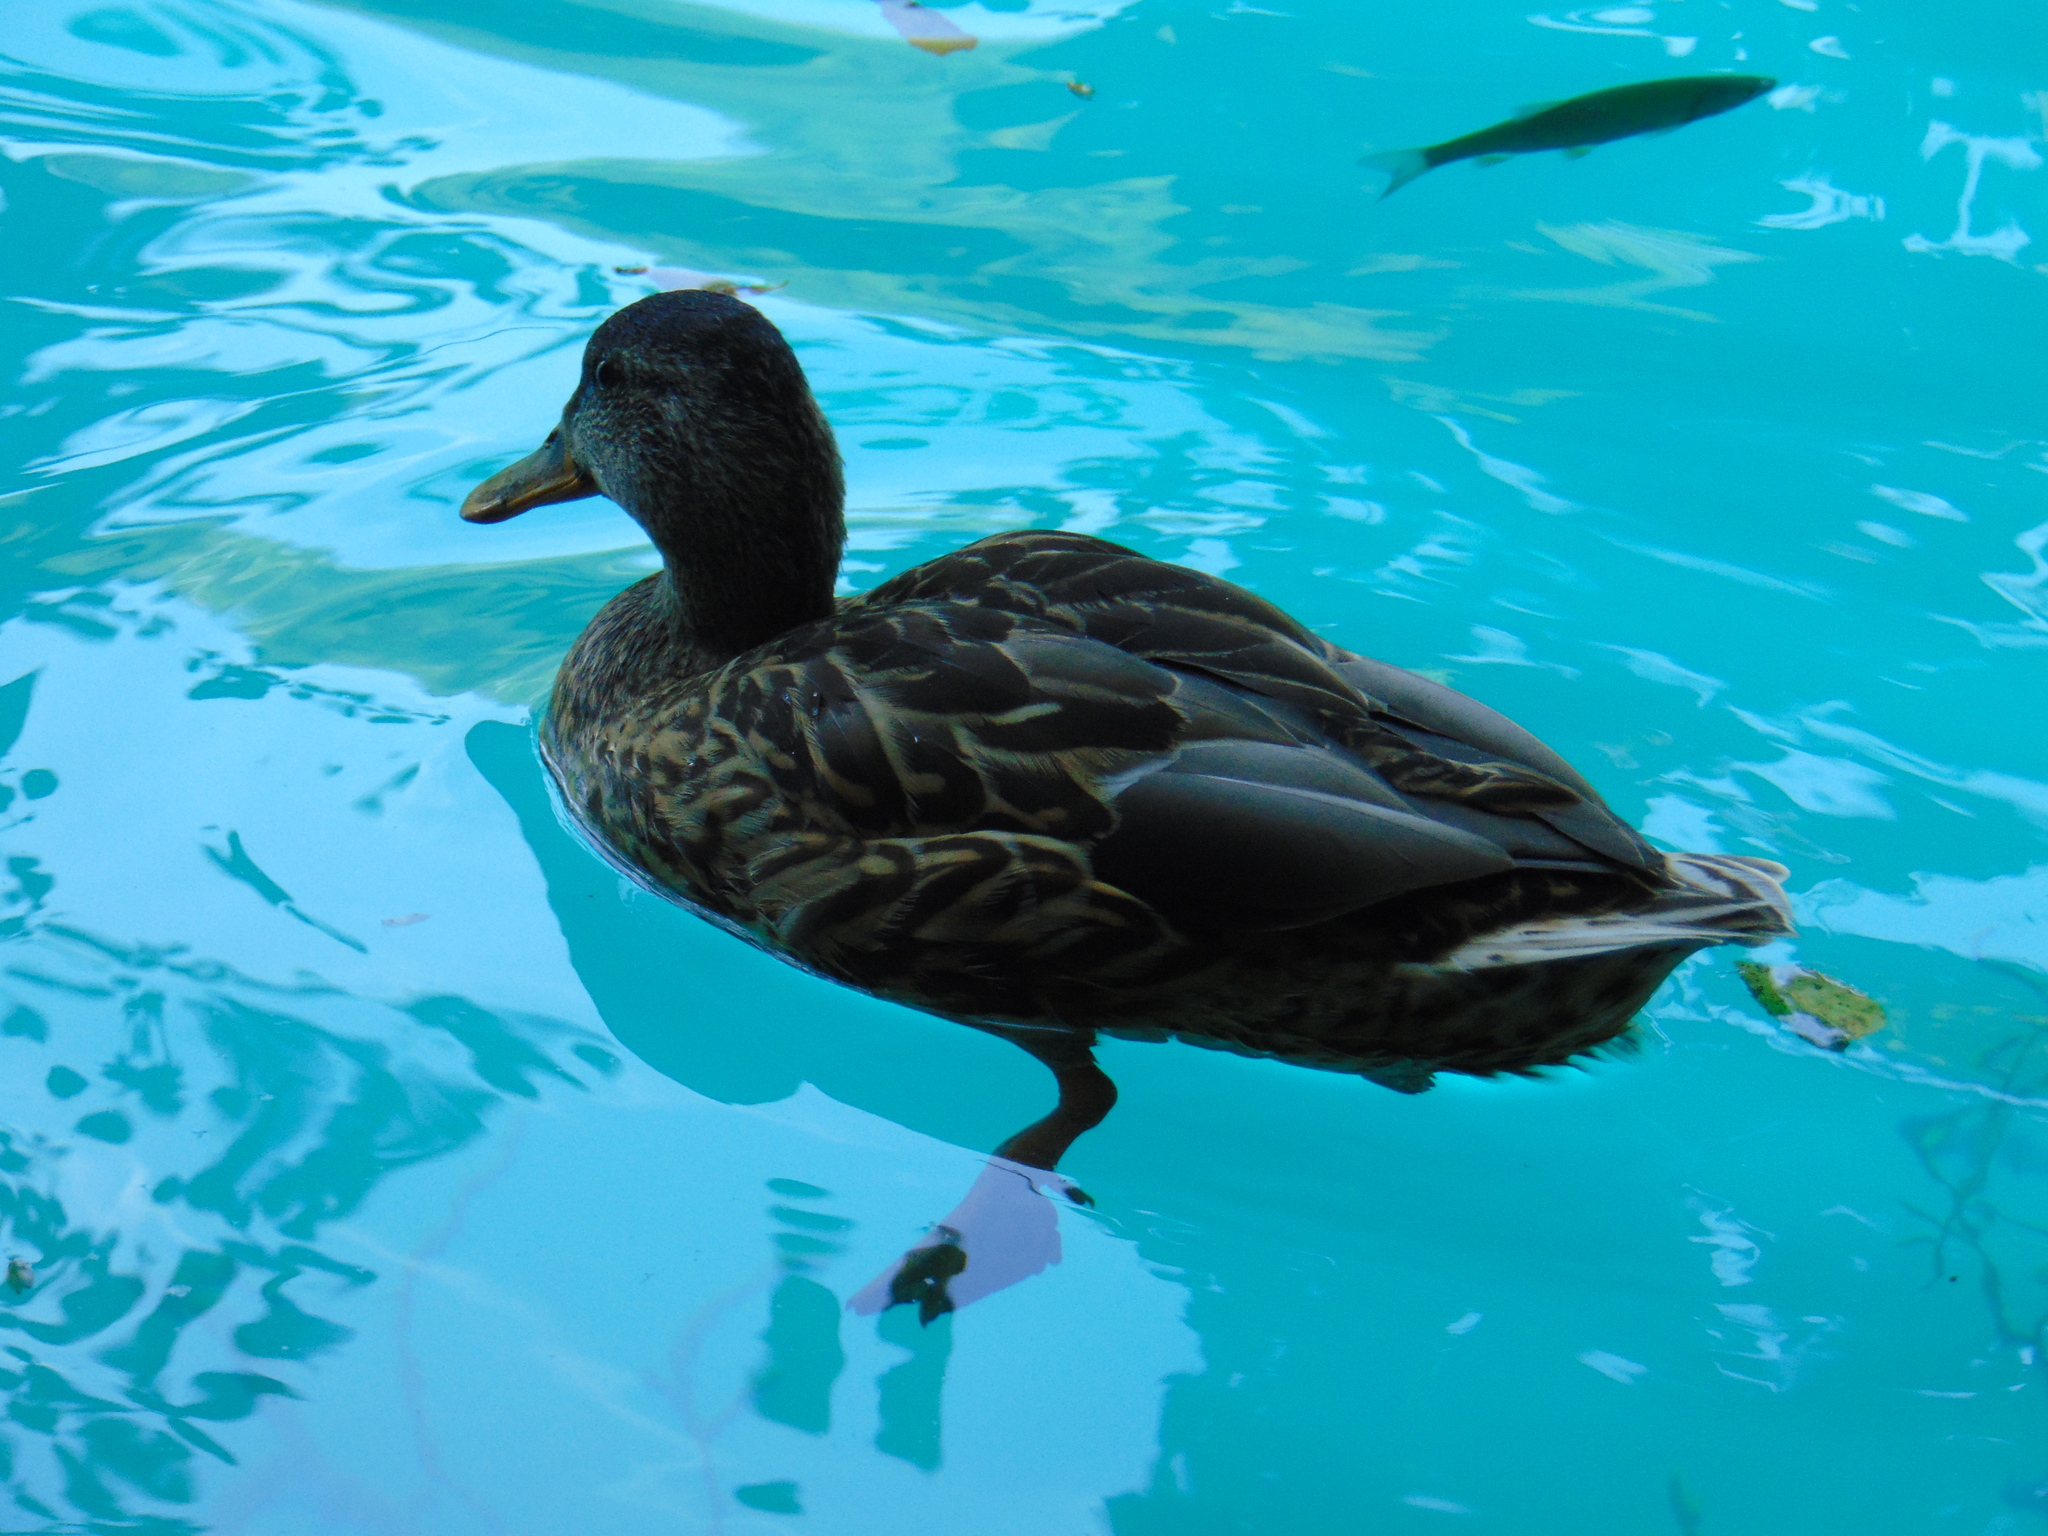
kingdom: Animalia
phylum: Chordata
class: Aves
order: Anseriformes
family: Anatidae
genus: Anas
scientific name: Anas platyrhynchos
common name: Mallard
